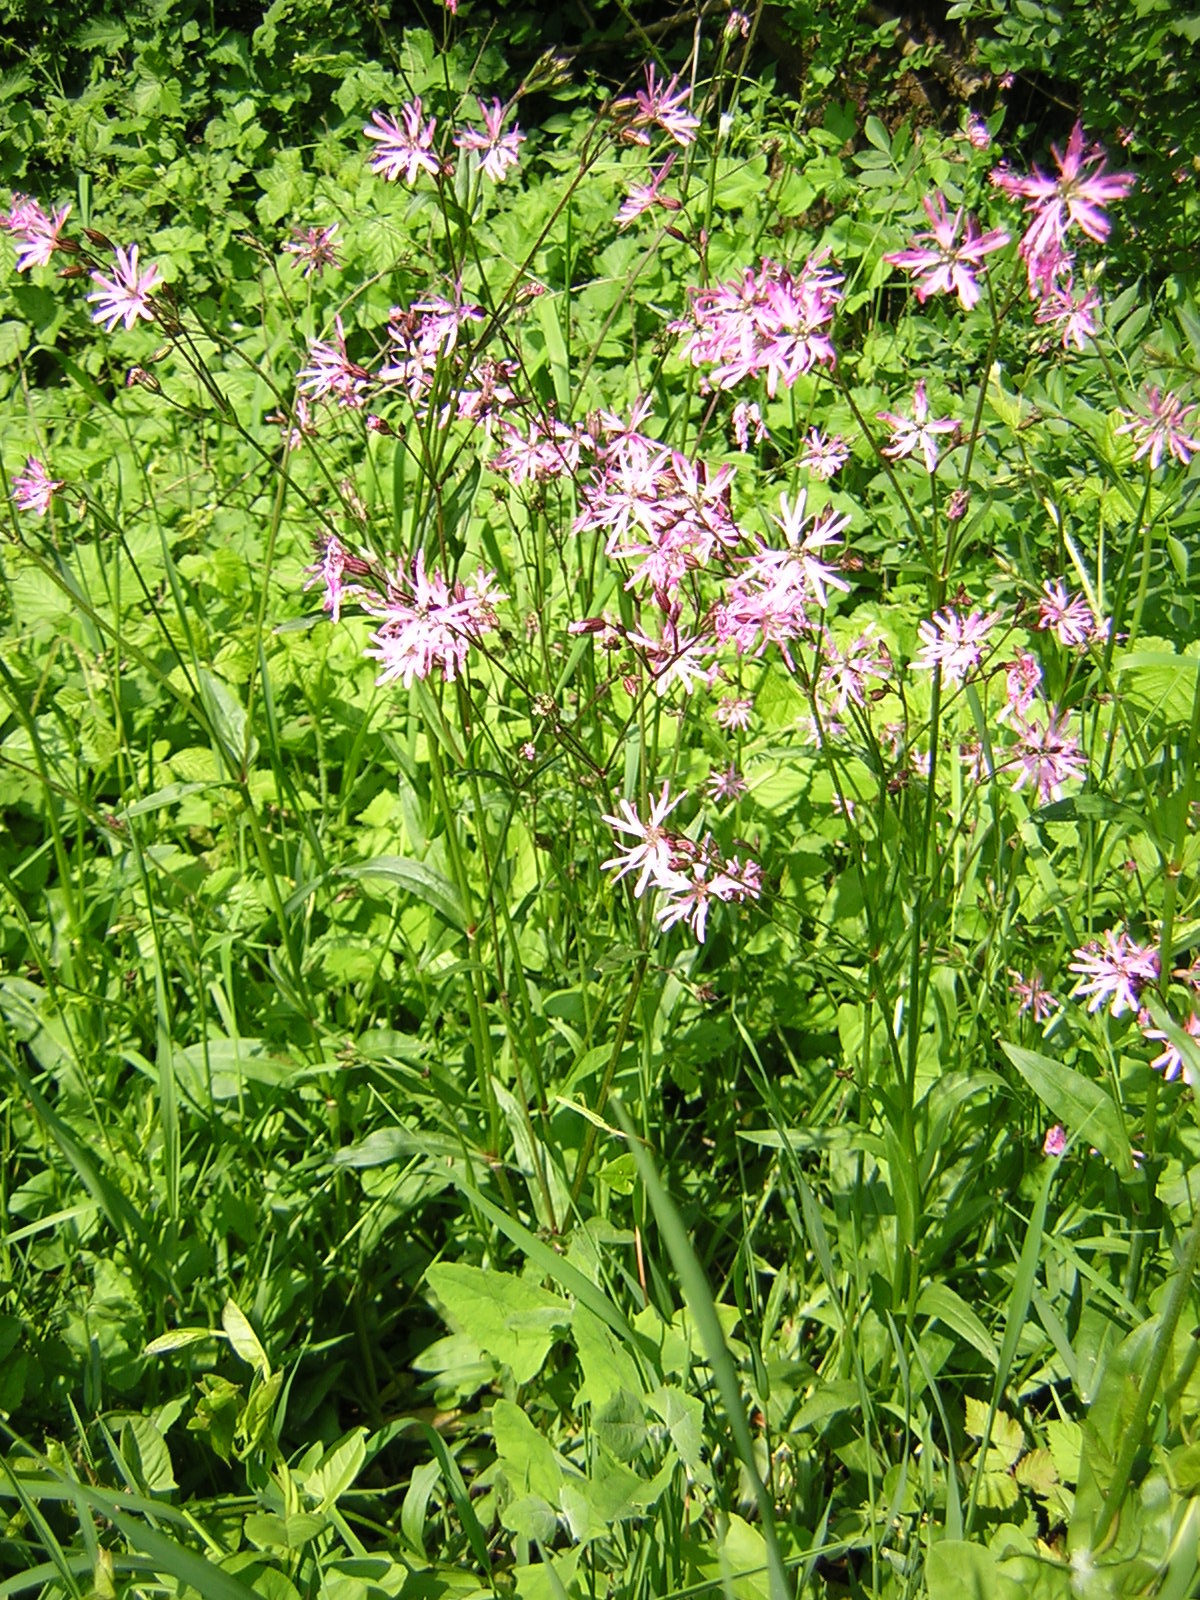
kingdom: Plantae
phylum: Tracheophyta
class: Magnoliopsida
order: Caryophyllales
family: Caryophyllaceae
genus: Silene
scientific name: Silene flos-cuculi
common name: Ragged-robin
